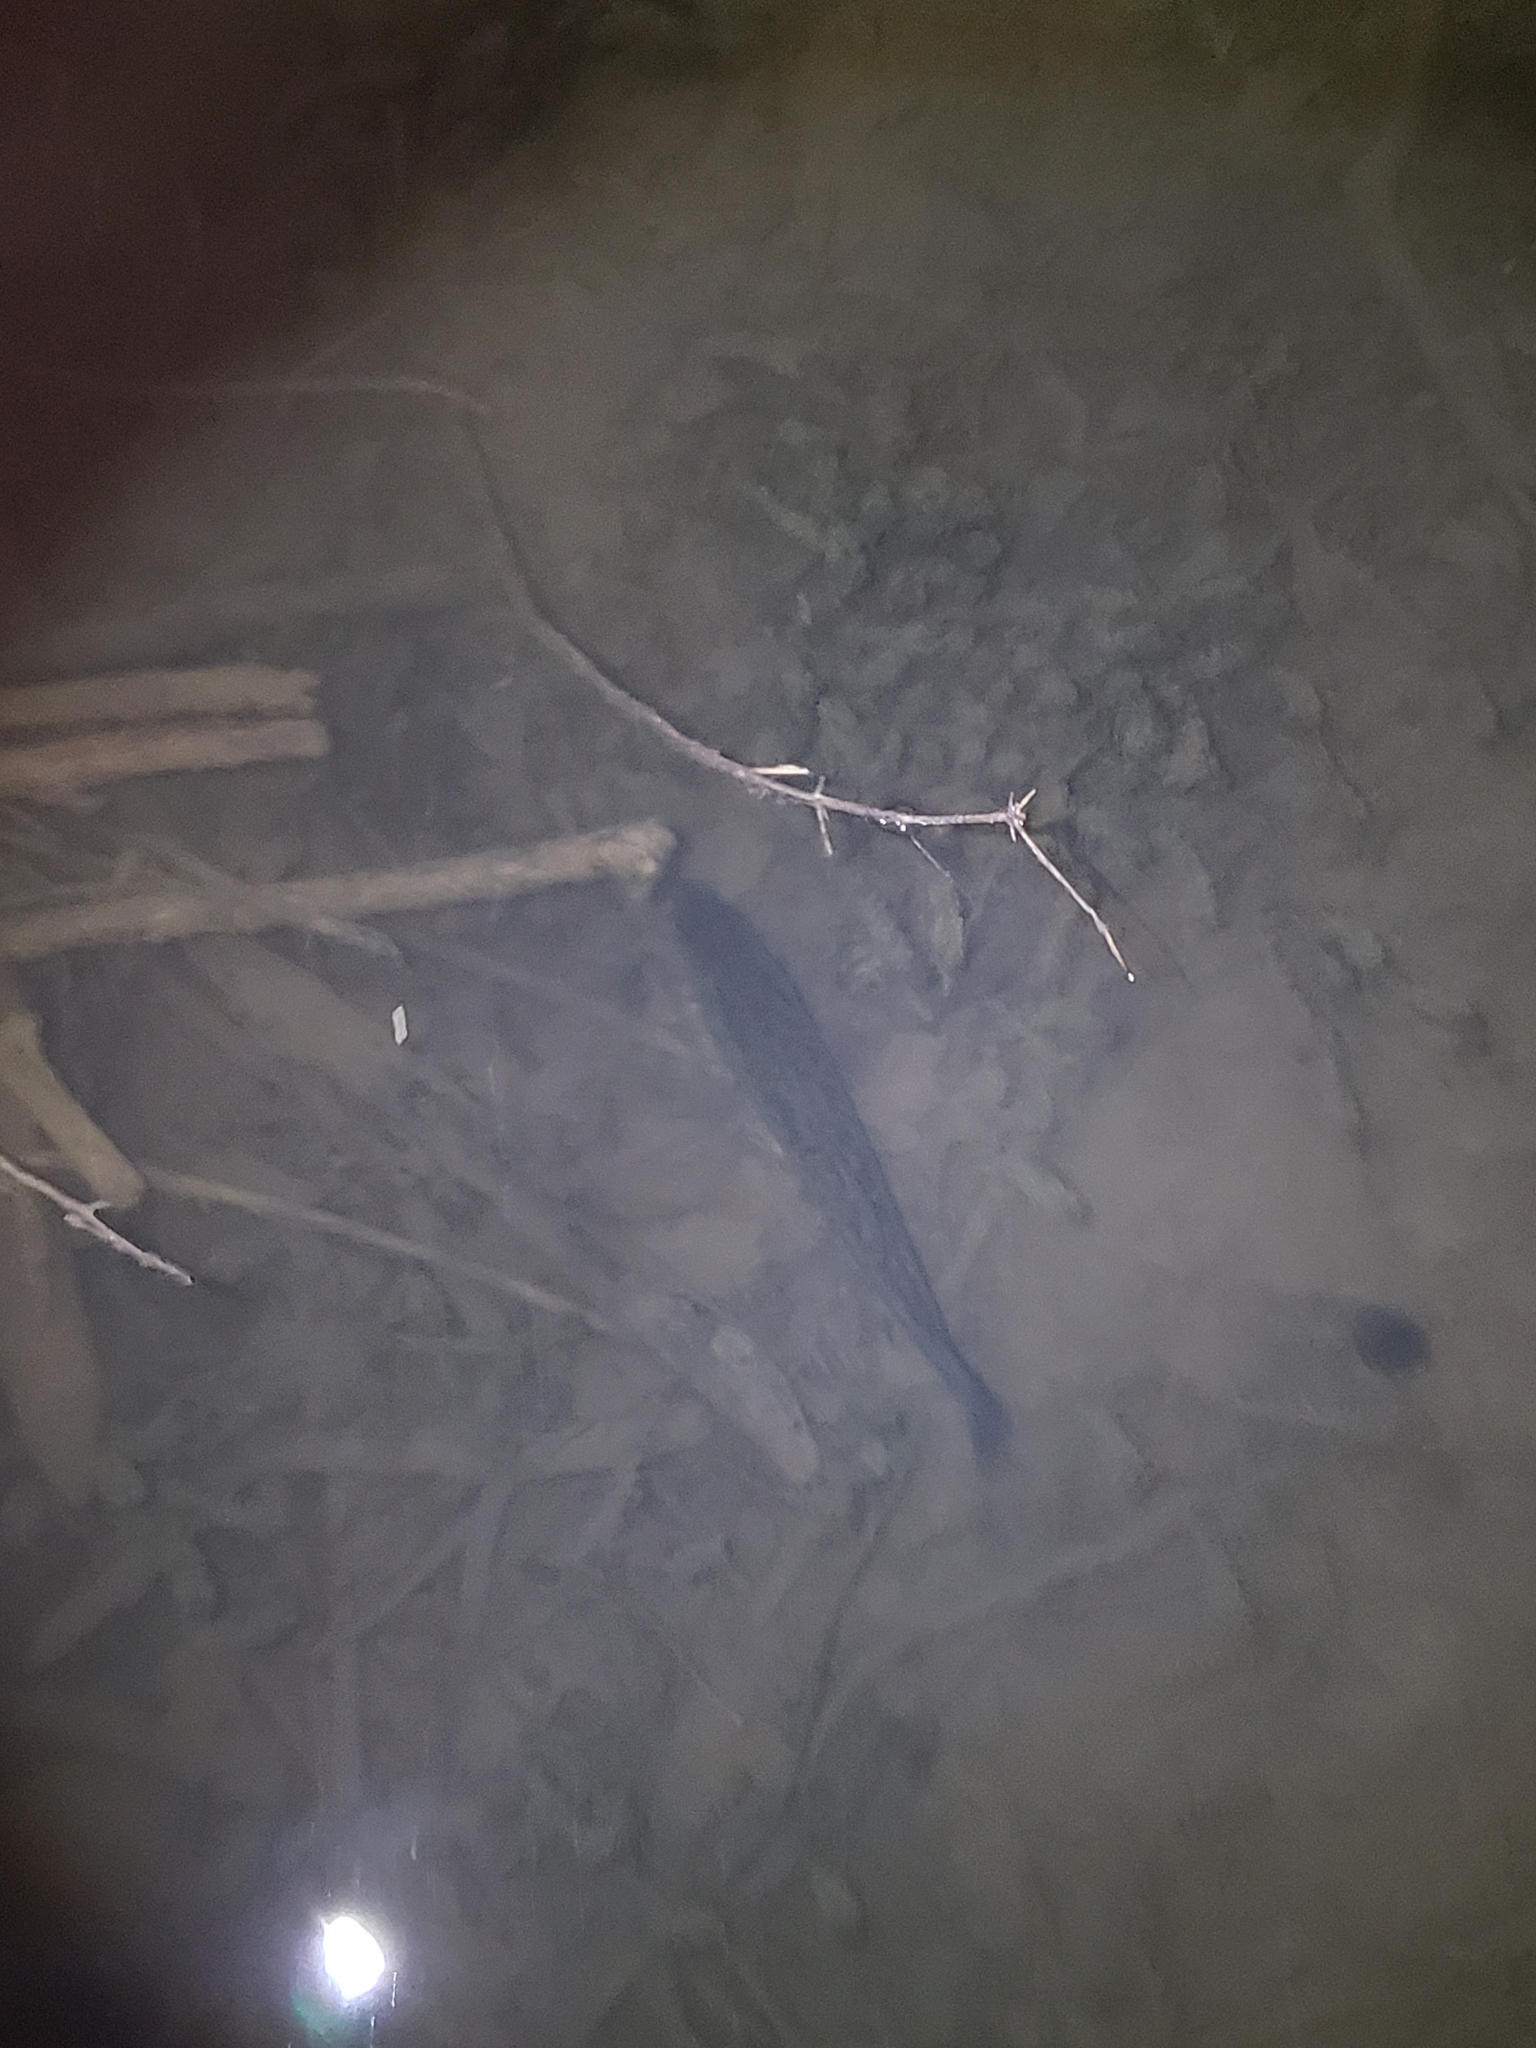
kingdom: Animalia
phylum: Chordata
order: Perciformes
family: Centrarchidae
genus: Micropterus
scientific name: Micropterus
